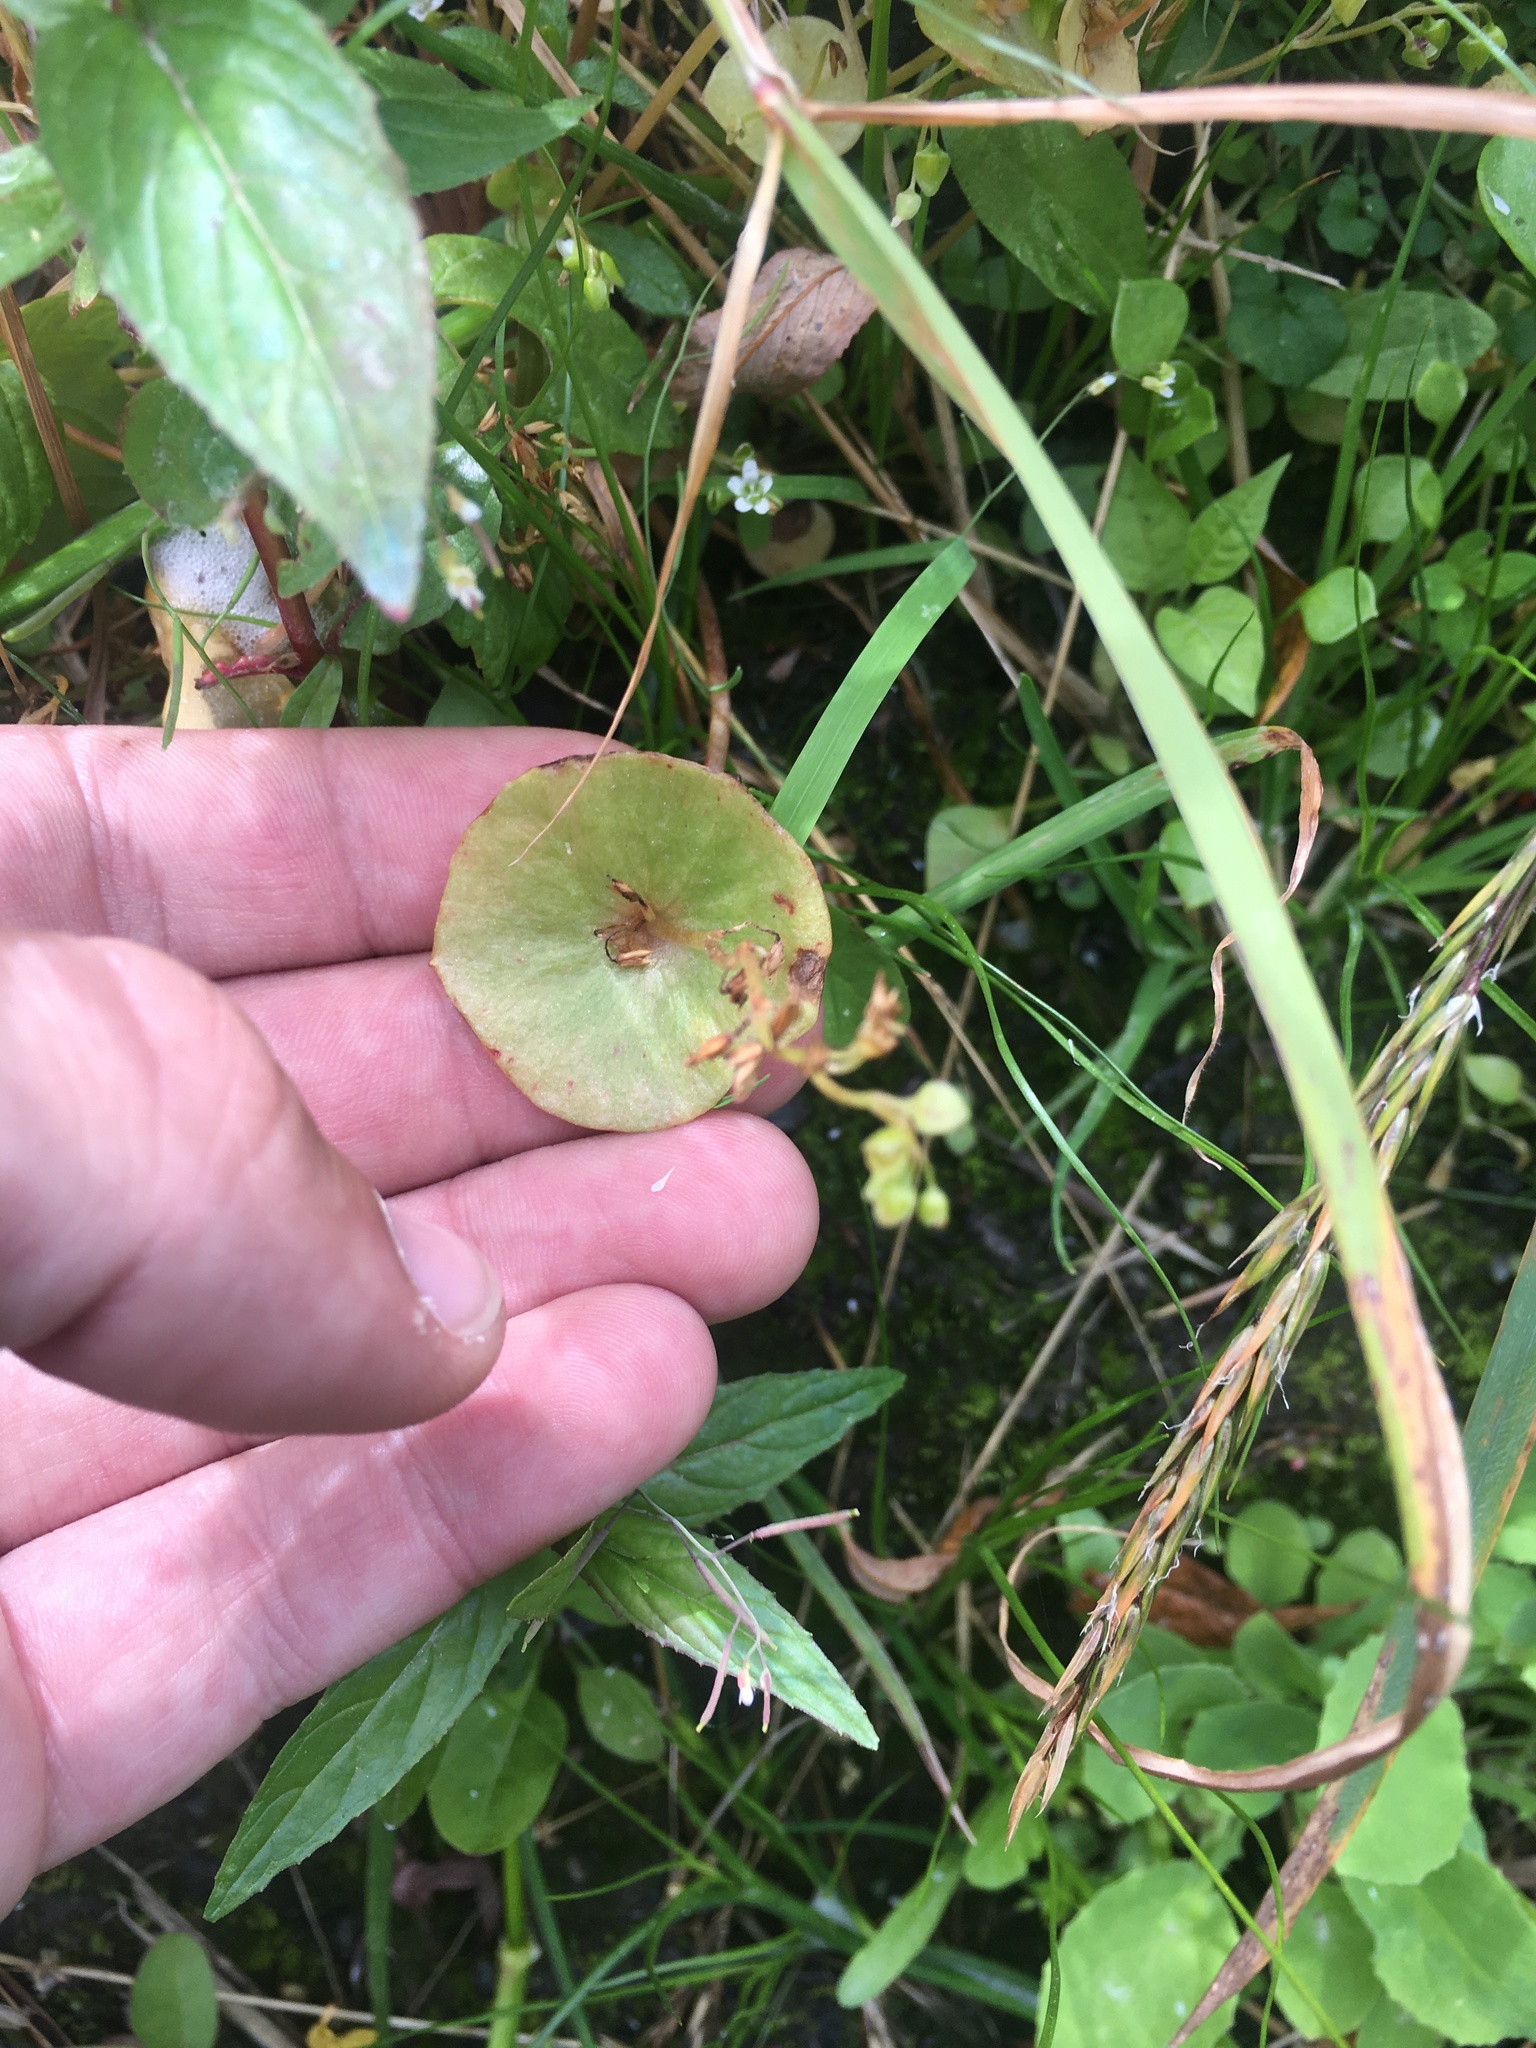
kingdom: Plantae
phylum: Tracheophyta
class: Magnoliopsida
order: Caryophyllales
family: Montiaceae
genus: Claytonia
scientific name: Claytonia perfoliata
